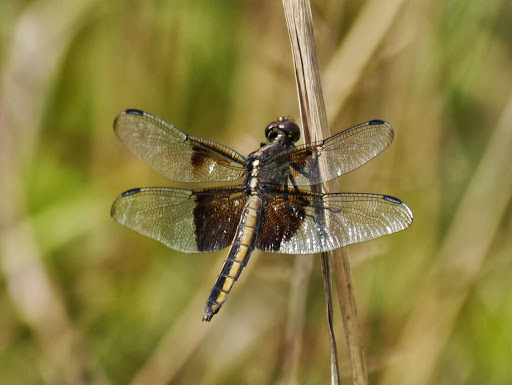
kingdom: Animalia
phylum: Arthropoda
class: Insecta
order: Odonata
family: Libellulidae
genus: Libellula
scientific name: Libellula luctuosa
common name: Widow skimmer
